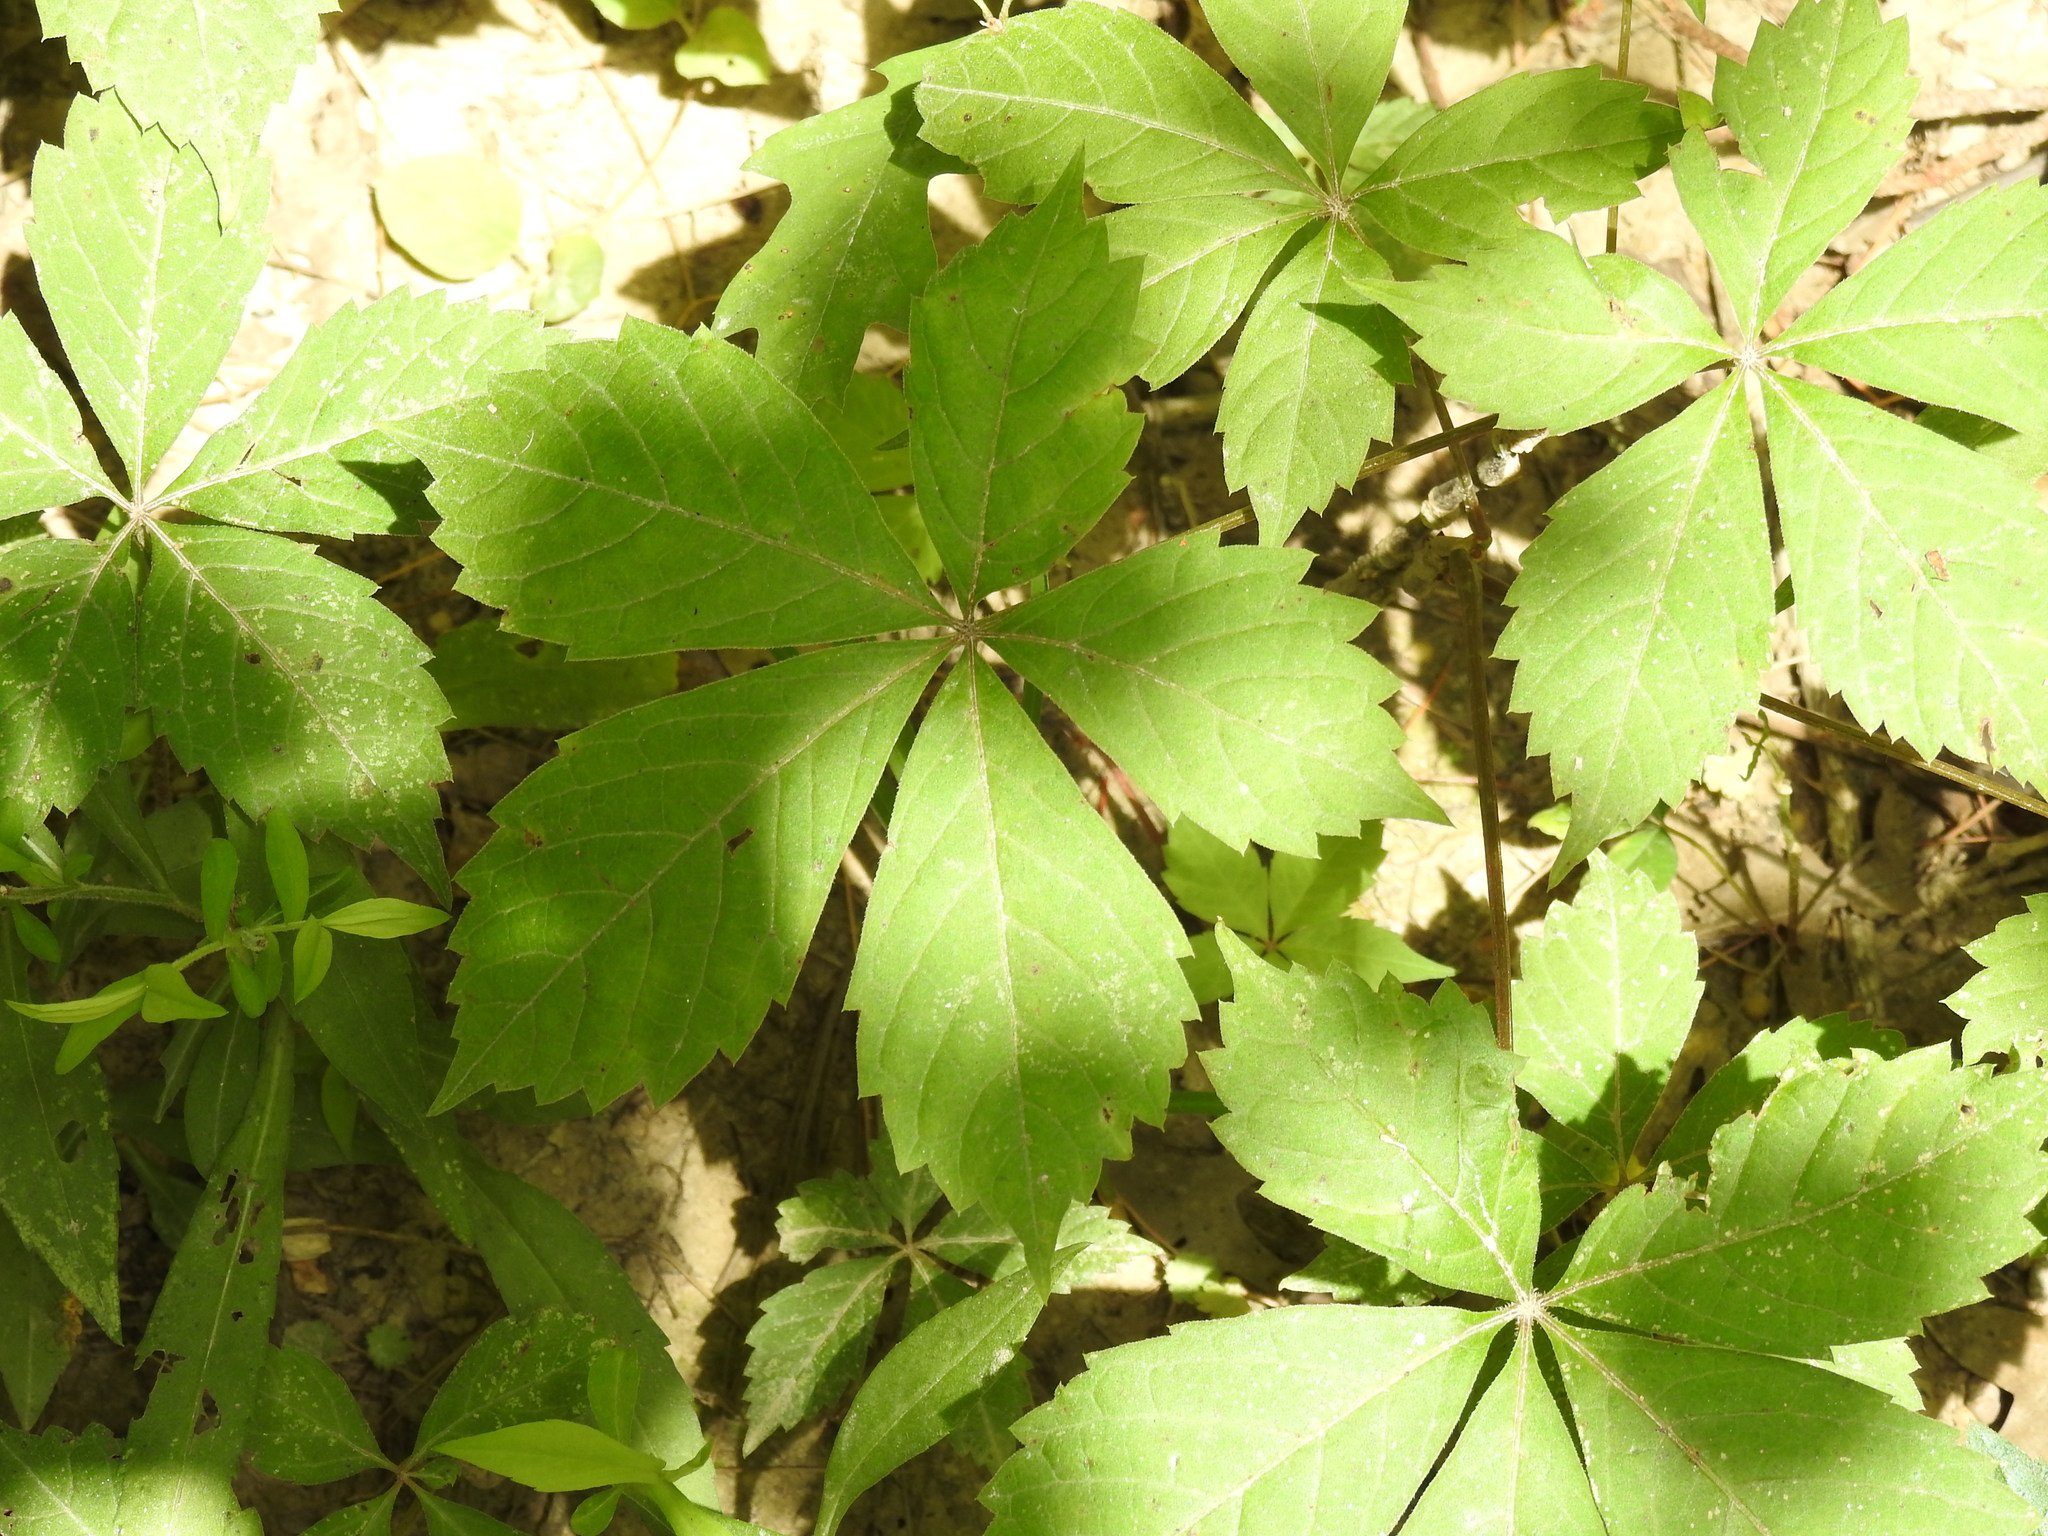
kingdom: Plantae
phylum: Tracheophyta
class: Magnoliopsida
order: Vitales
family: Vitaceae
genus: Parthenocissus
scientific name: Parthenocissus quinquefolia
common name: Virginia-creeper
